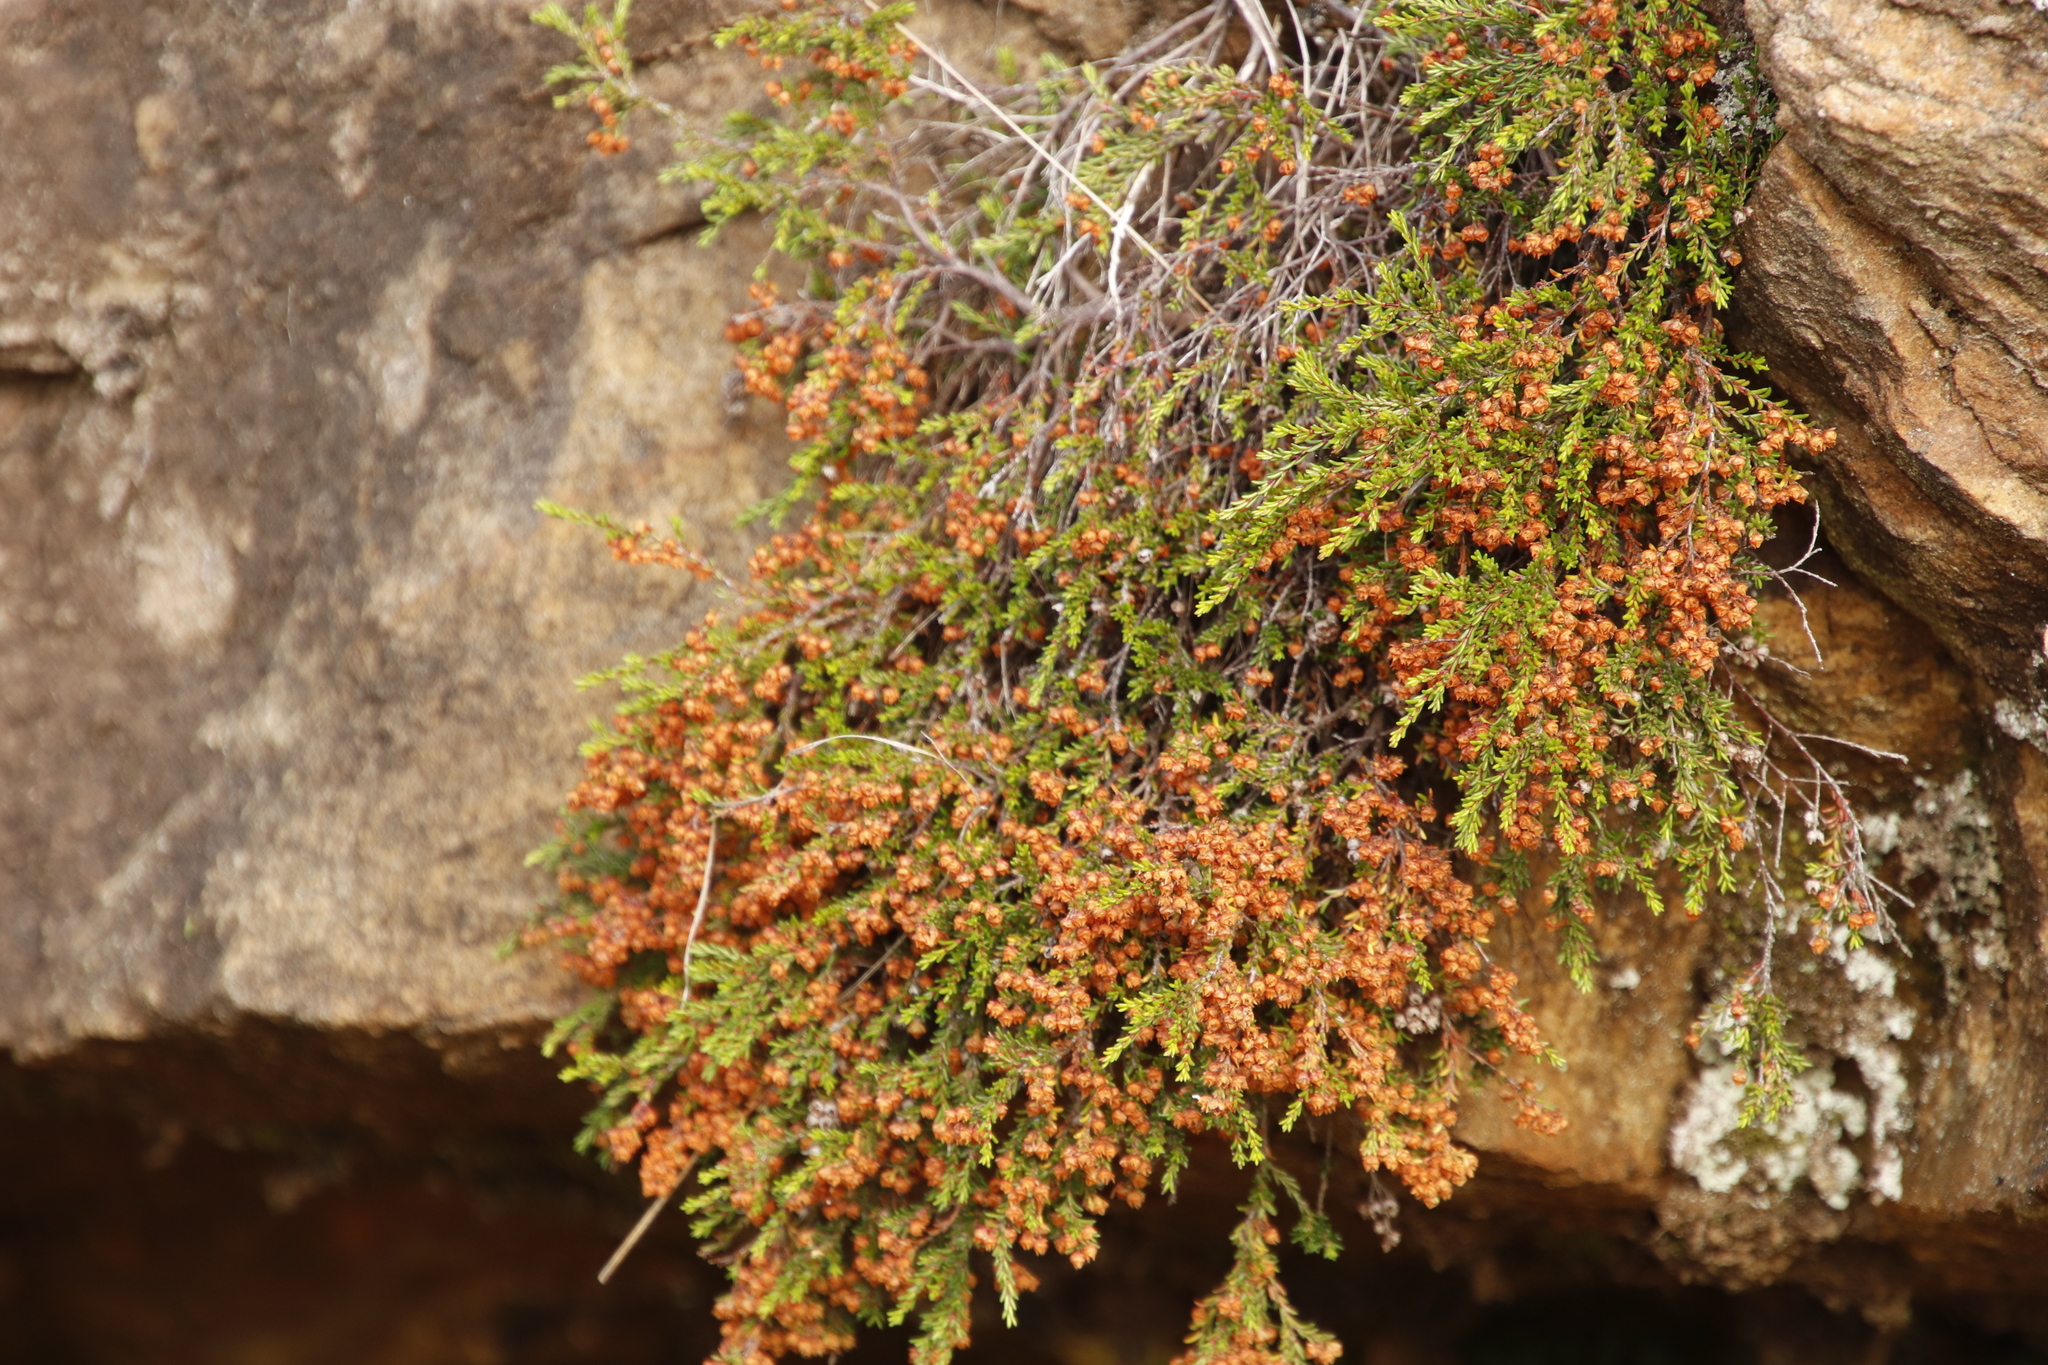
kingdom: Plantae
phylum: Tracheophyta
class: Magnoliopsida
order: Ericales
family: Ericaceae
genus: Erica
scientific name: Erica tenuis
